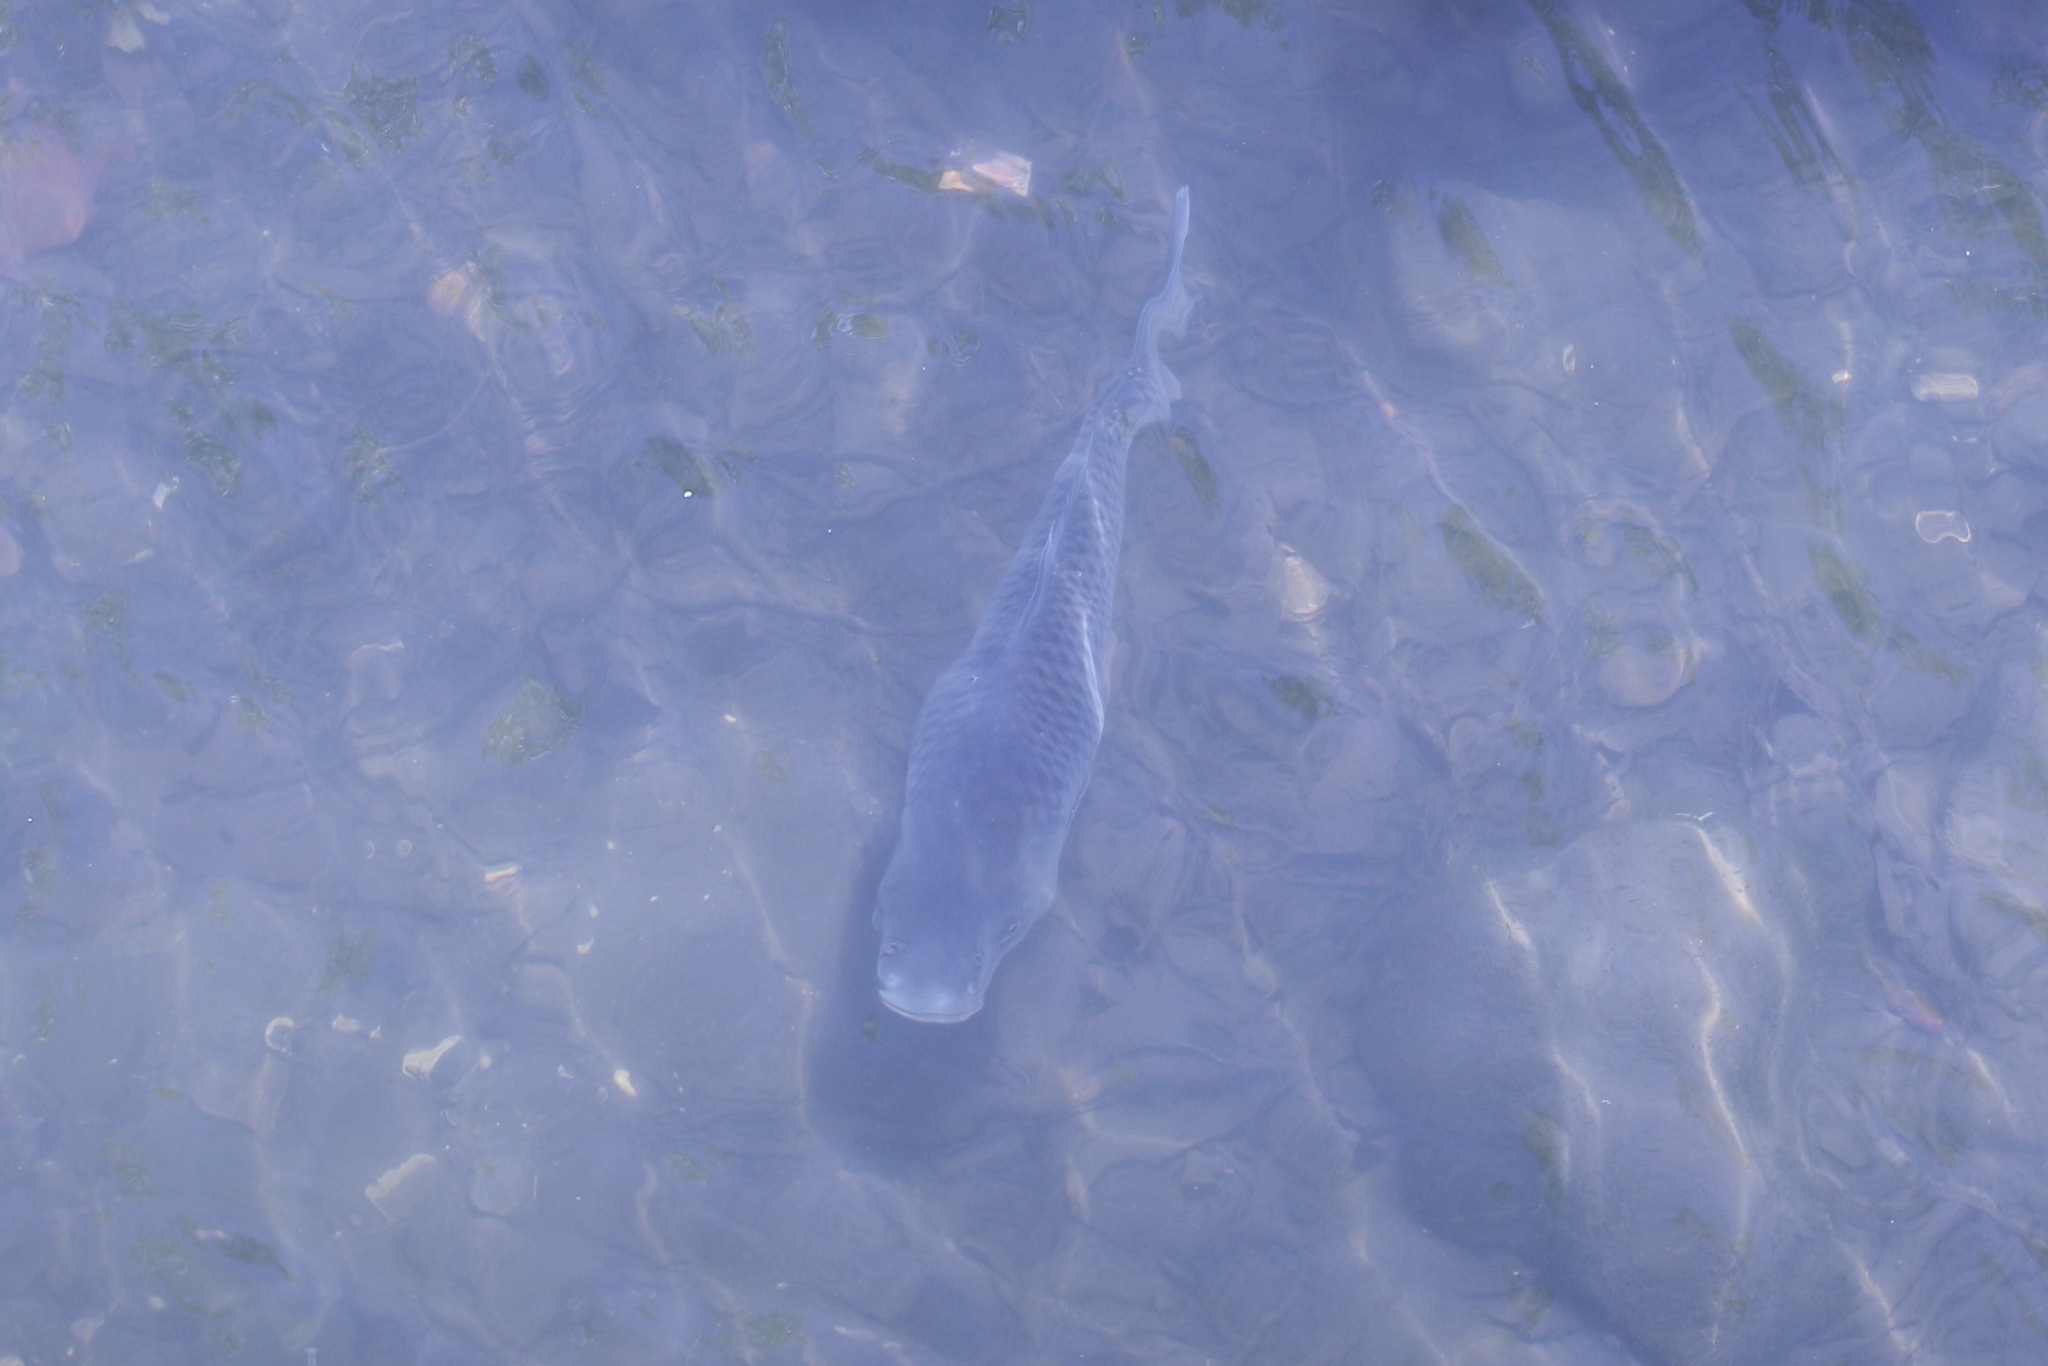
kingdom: Animalia
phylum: Chordata
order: Cypriniformes
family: Cyprinidae
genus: Cyprinus
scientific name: Cyprinus carpio
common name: Common carp
